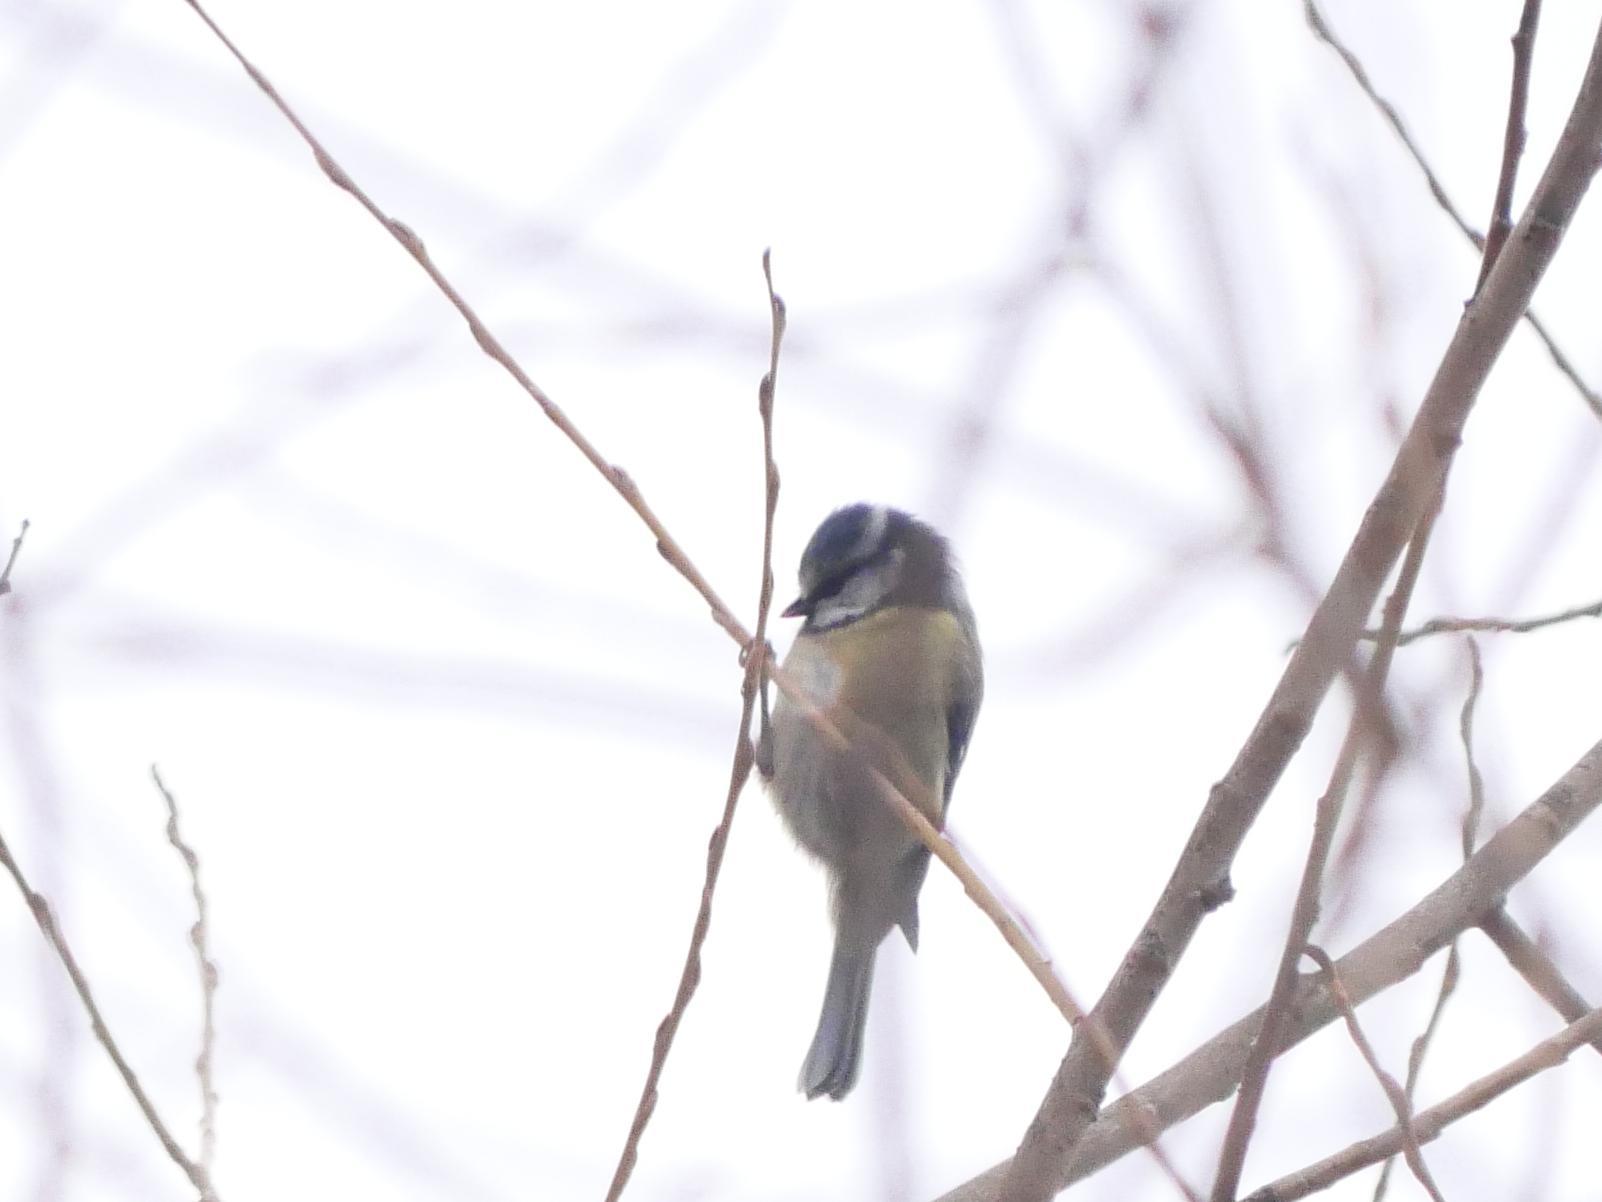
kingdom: Animalia
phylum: Chordata
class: Aves
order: Passeriformes
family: Paridae
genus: Cyanistes
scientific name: Cyanistes caeruleus
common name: Eurasian blue tit
